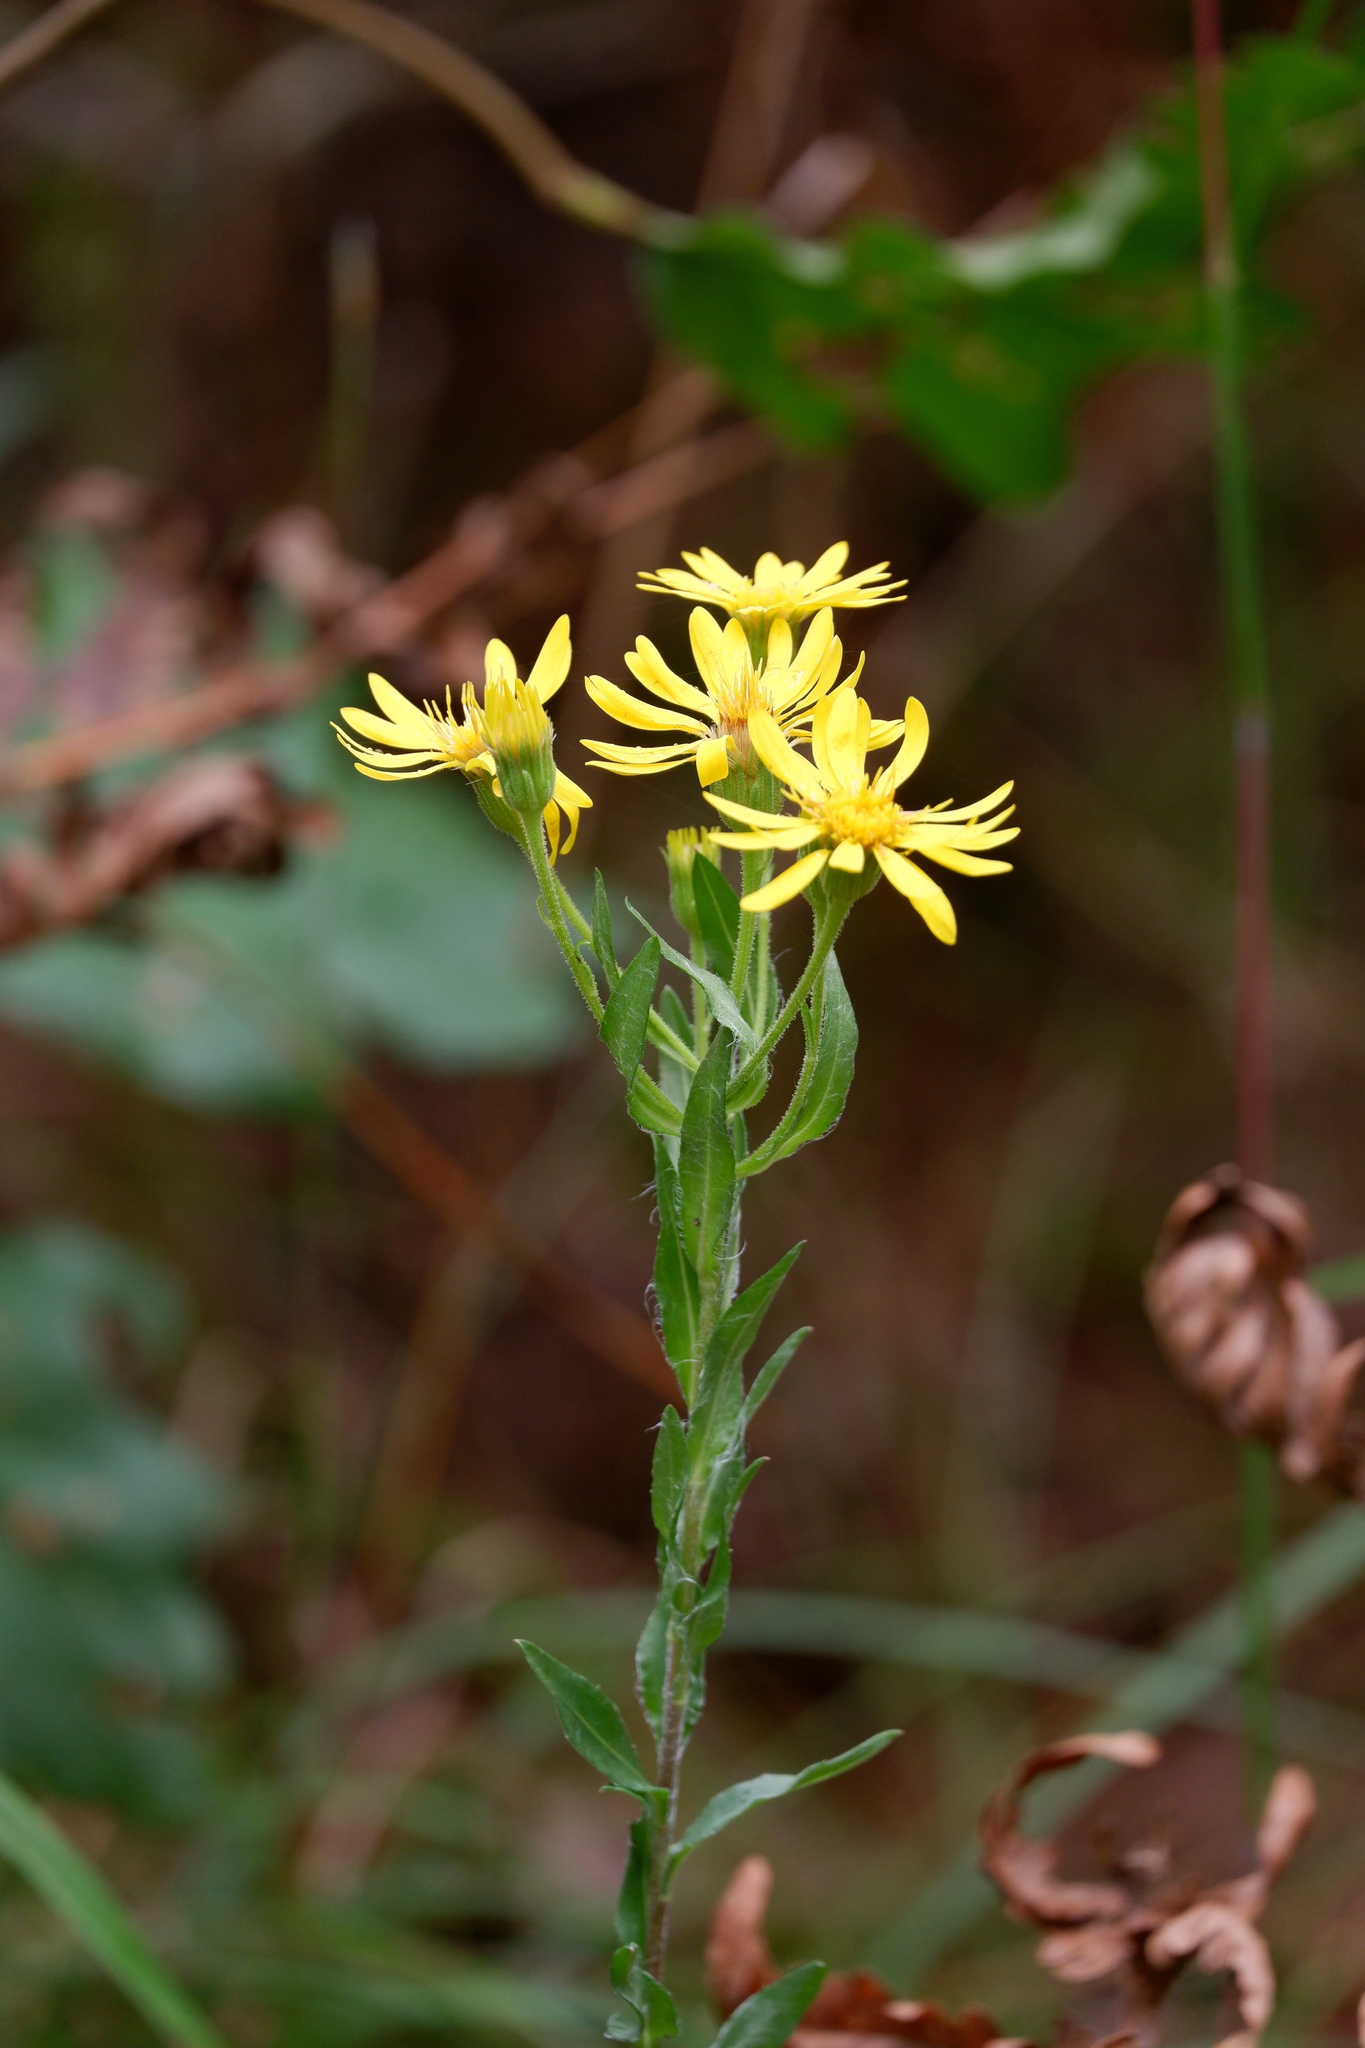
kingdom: Plantae
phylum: Tracheophyta
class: Magnoliopsida
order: Asterales
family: Asteraceae
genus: Chrysopsis
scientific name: Chrysopsis mariana
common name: Maryland golden-aster
